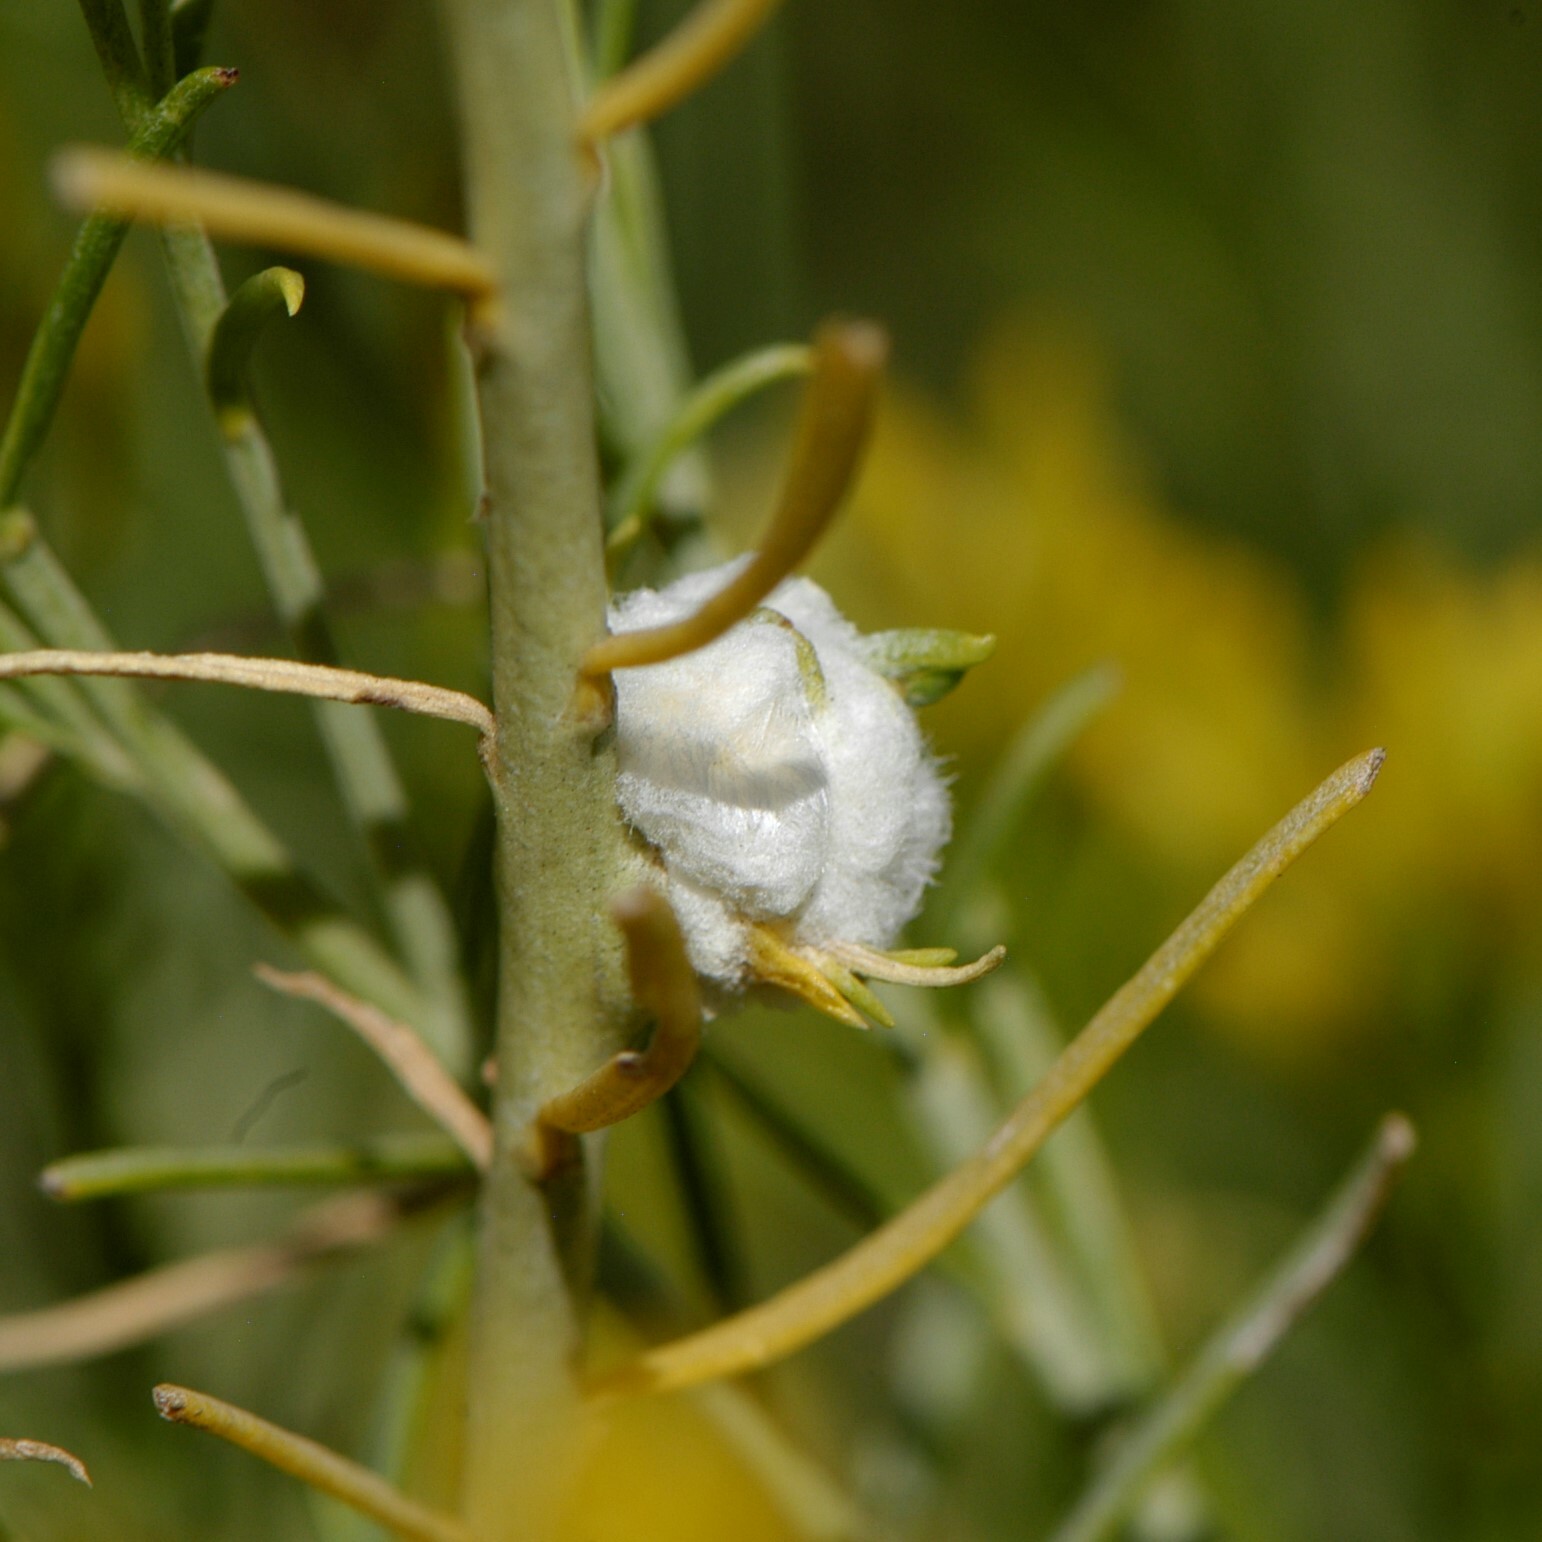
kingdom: Animalia
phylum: Arthropoda
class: Insecta
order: Diptera
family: Tephritidae
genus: Aciurina
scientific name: Aciurina bigeloviae
